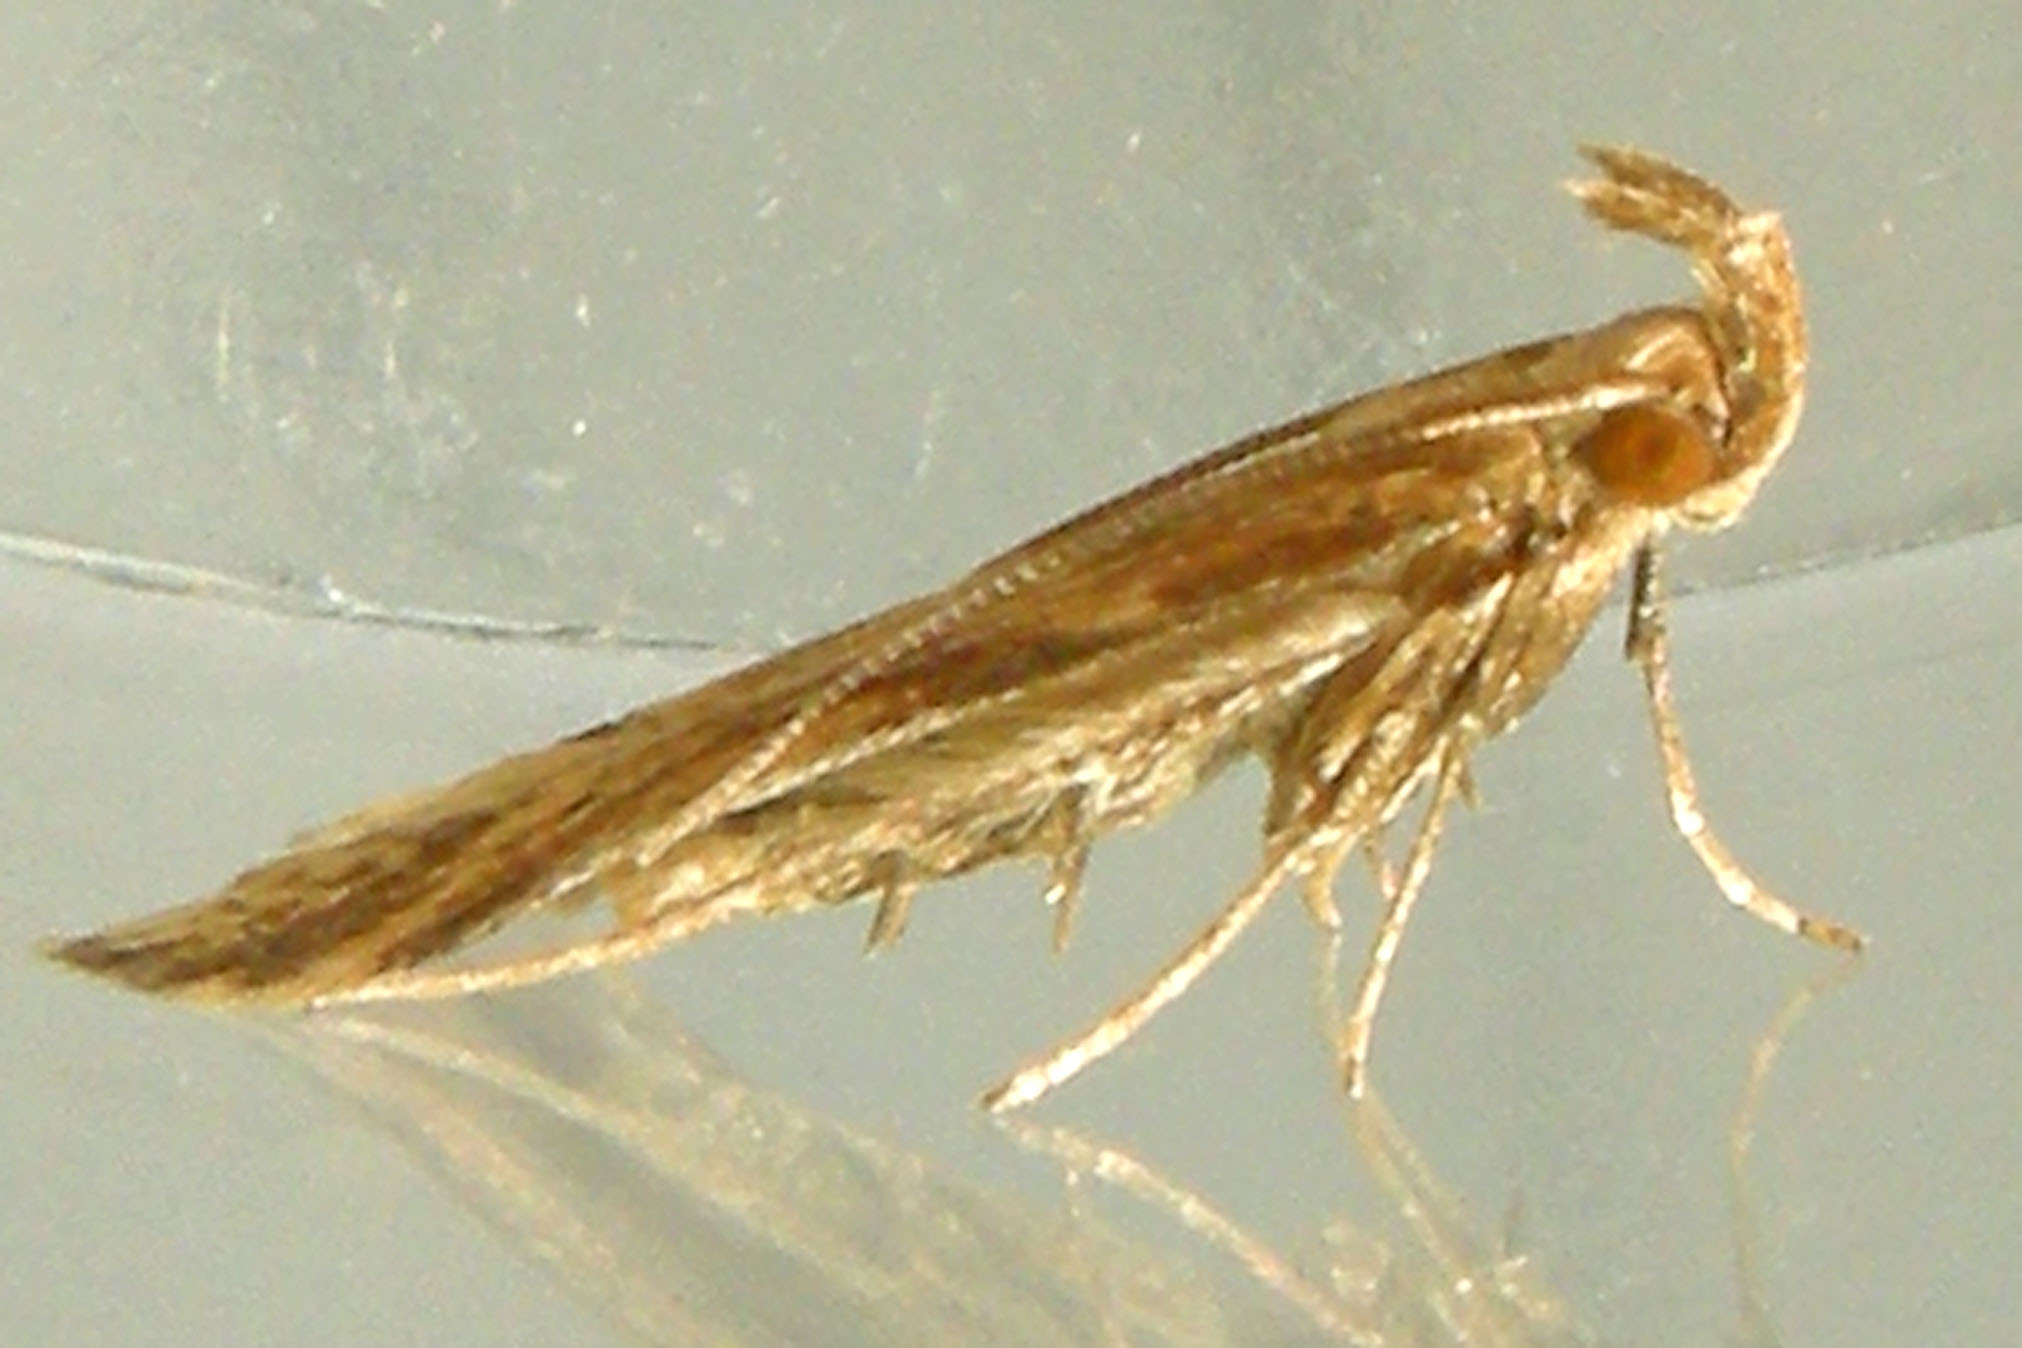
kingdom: Animalia
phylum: Arthropoda
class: Insecta
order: Lepidoptera
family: Gelechiidae
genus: Metzneria
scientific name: Metzneria lappella
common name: Burdock neb
